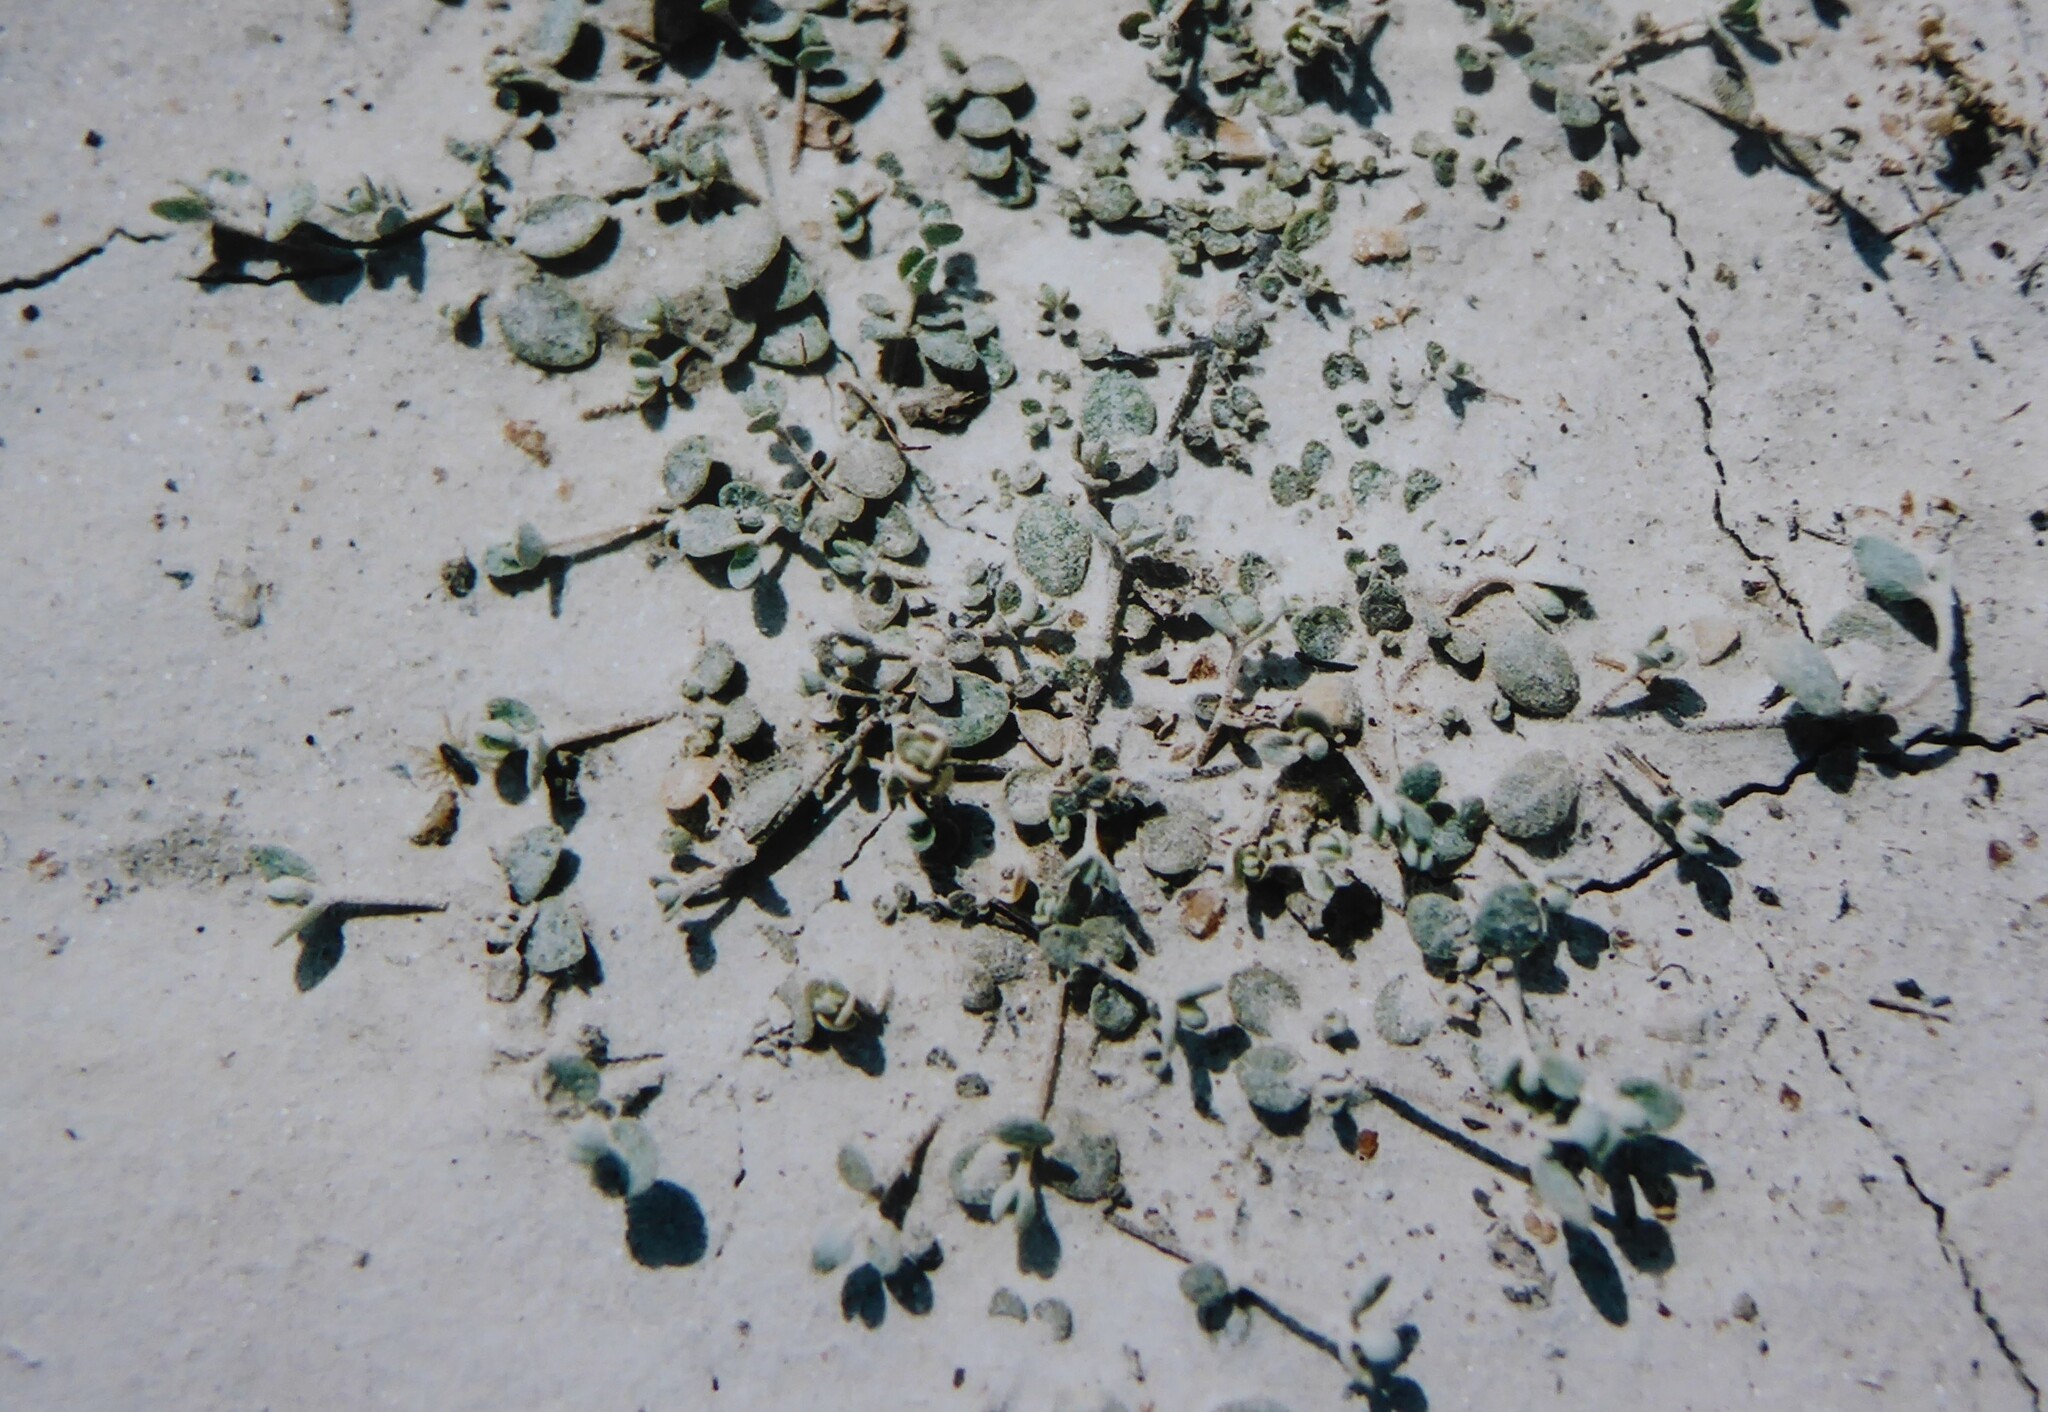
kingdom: Plantae
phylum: Tracheophyta
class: Magnoliopsida
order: Caryophyllales
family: Amaranthaceae
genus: Atriplex
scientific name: Atriplex buchananii
